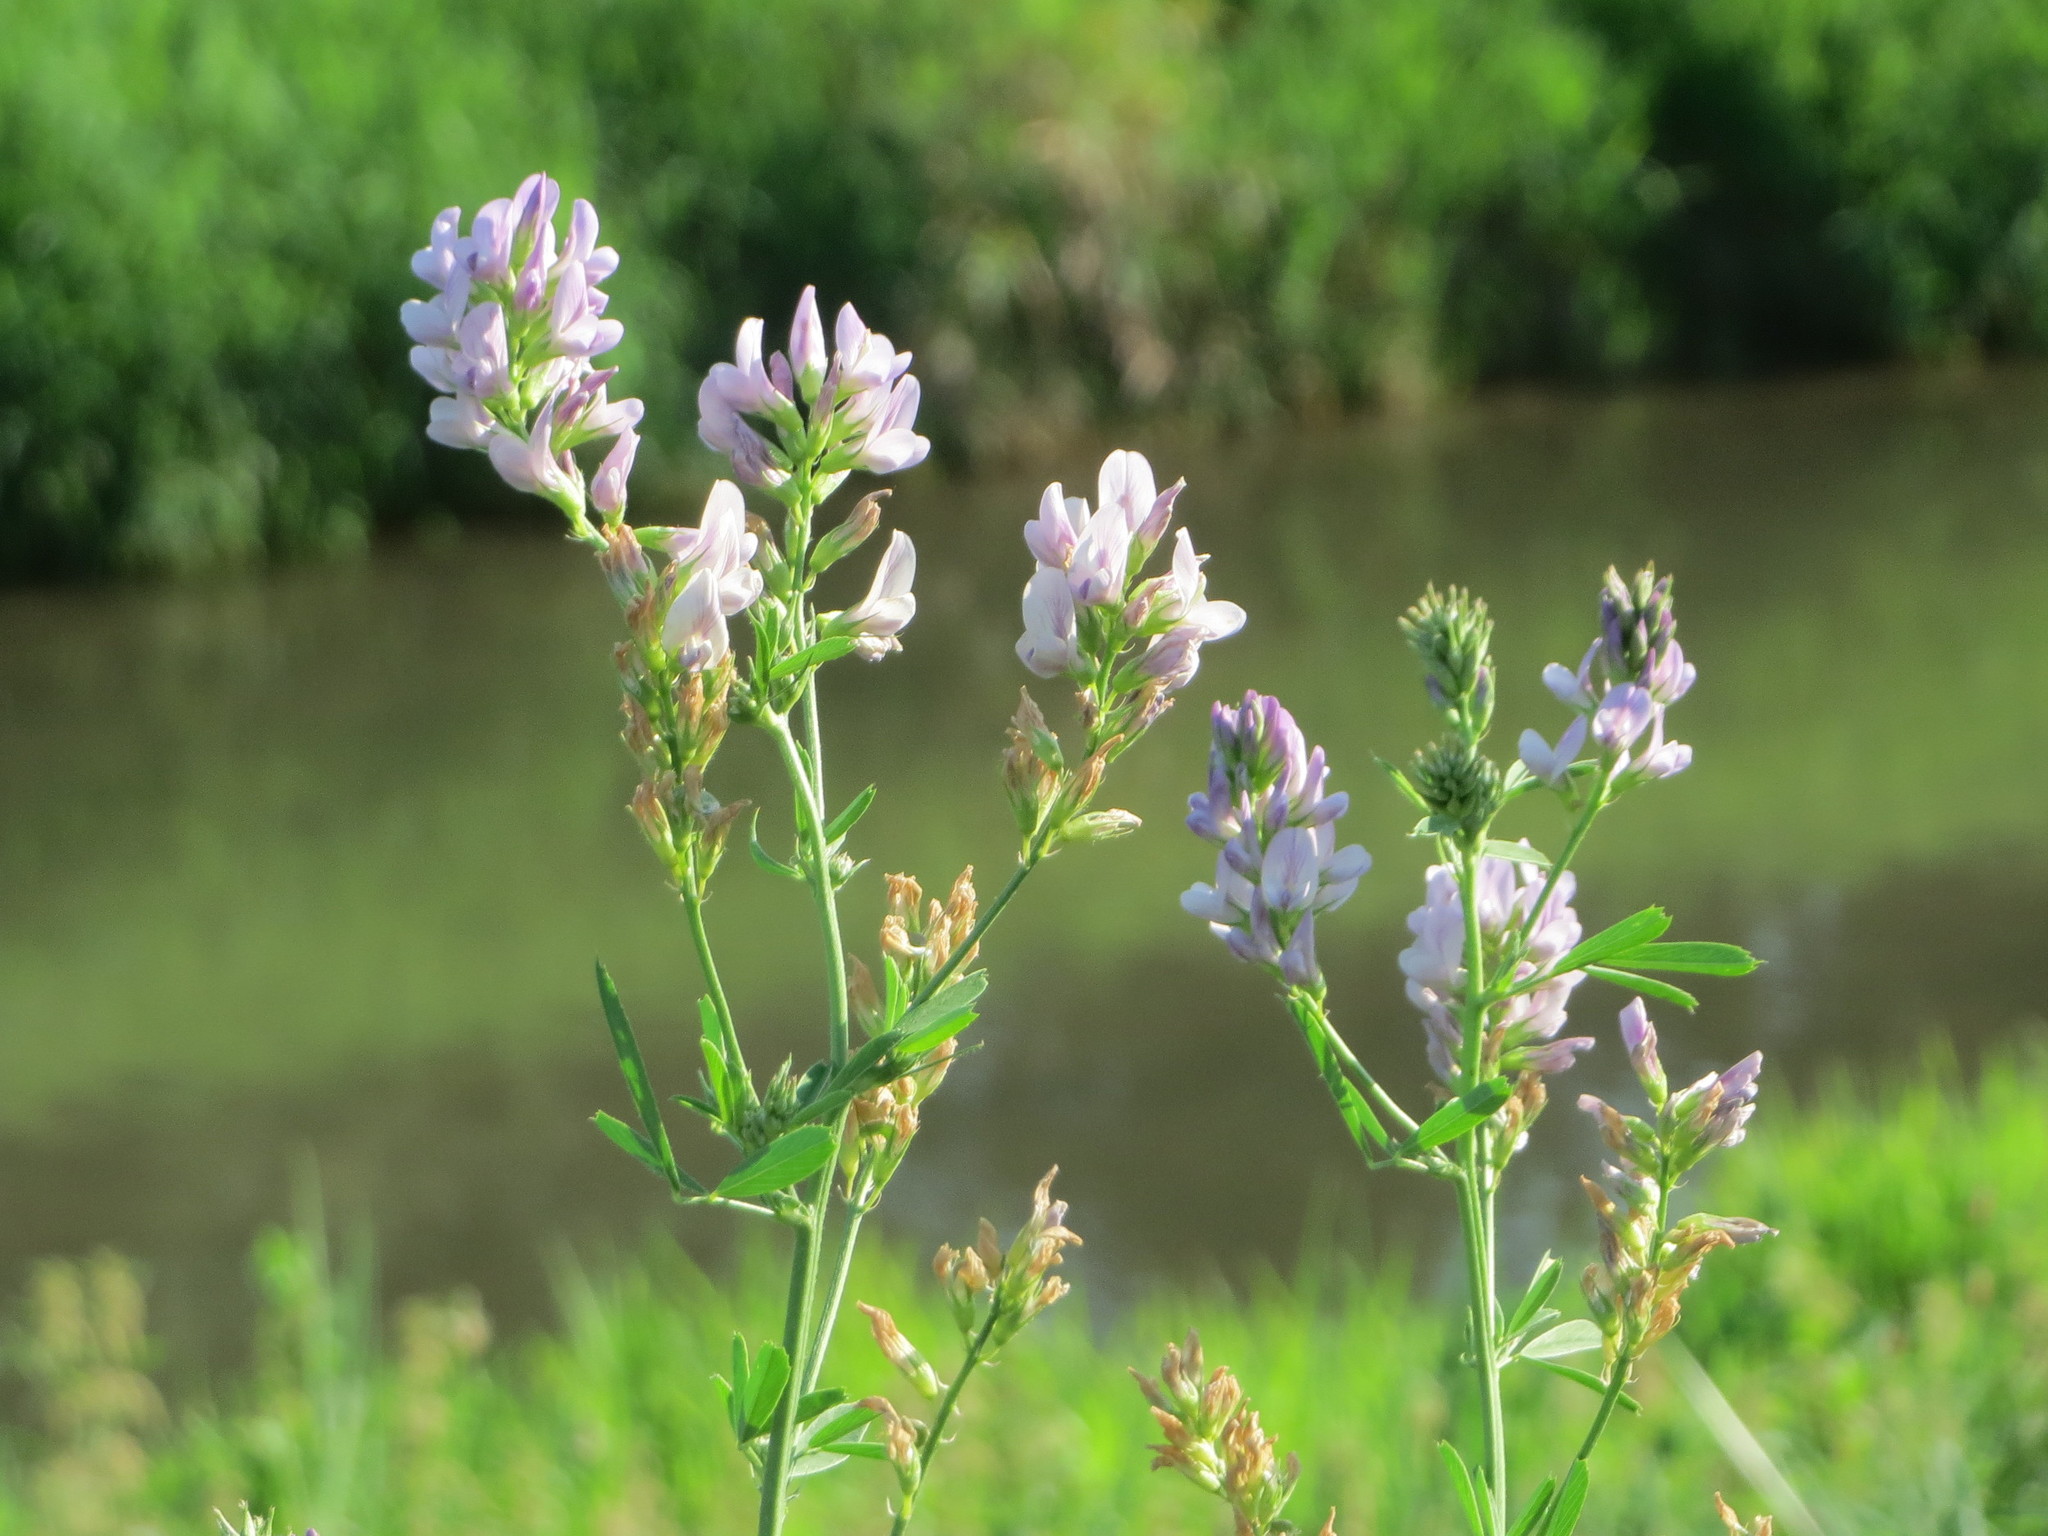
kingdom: Plantae
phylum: Tracheophyta
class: Magnoliopsida
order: Fabales
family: Fabaceae
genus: Medicago
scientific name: Medicago sativa
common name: Alfalfa
